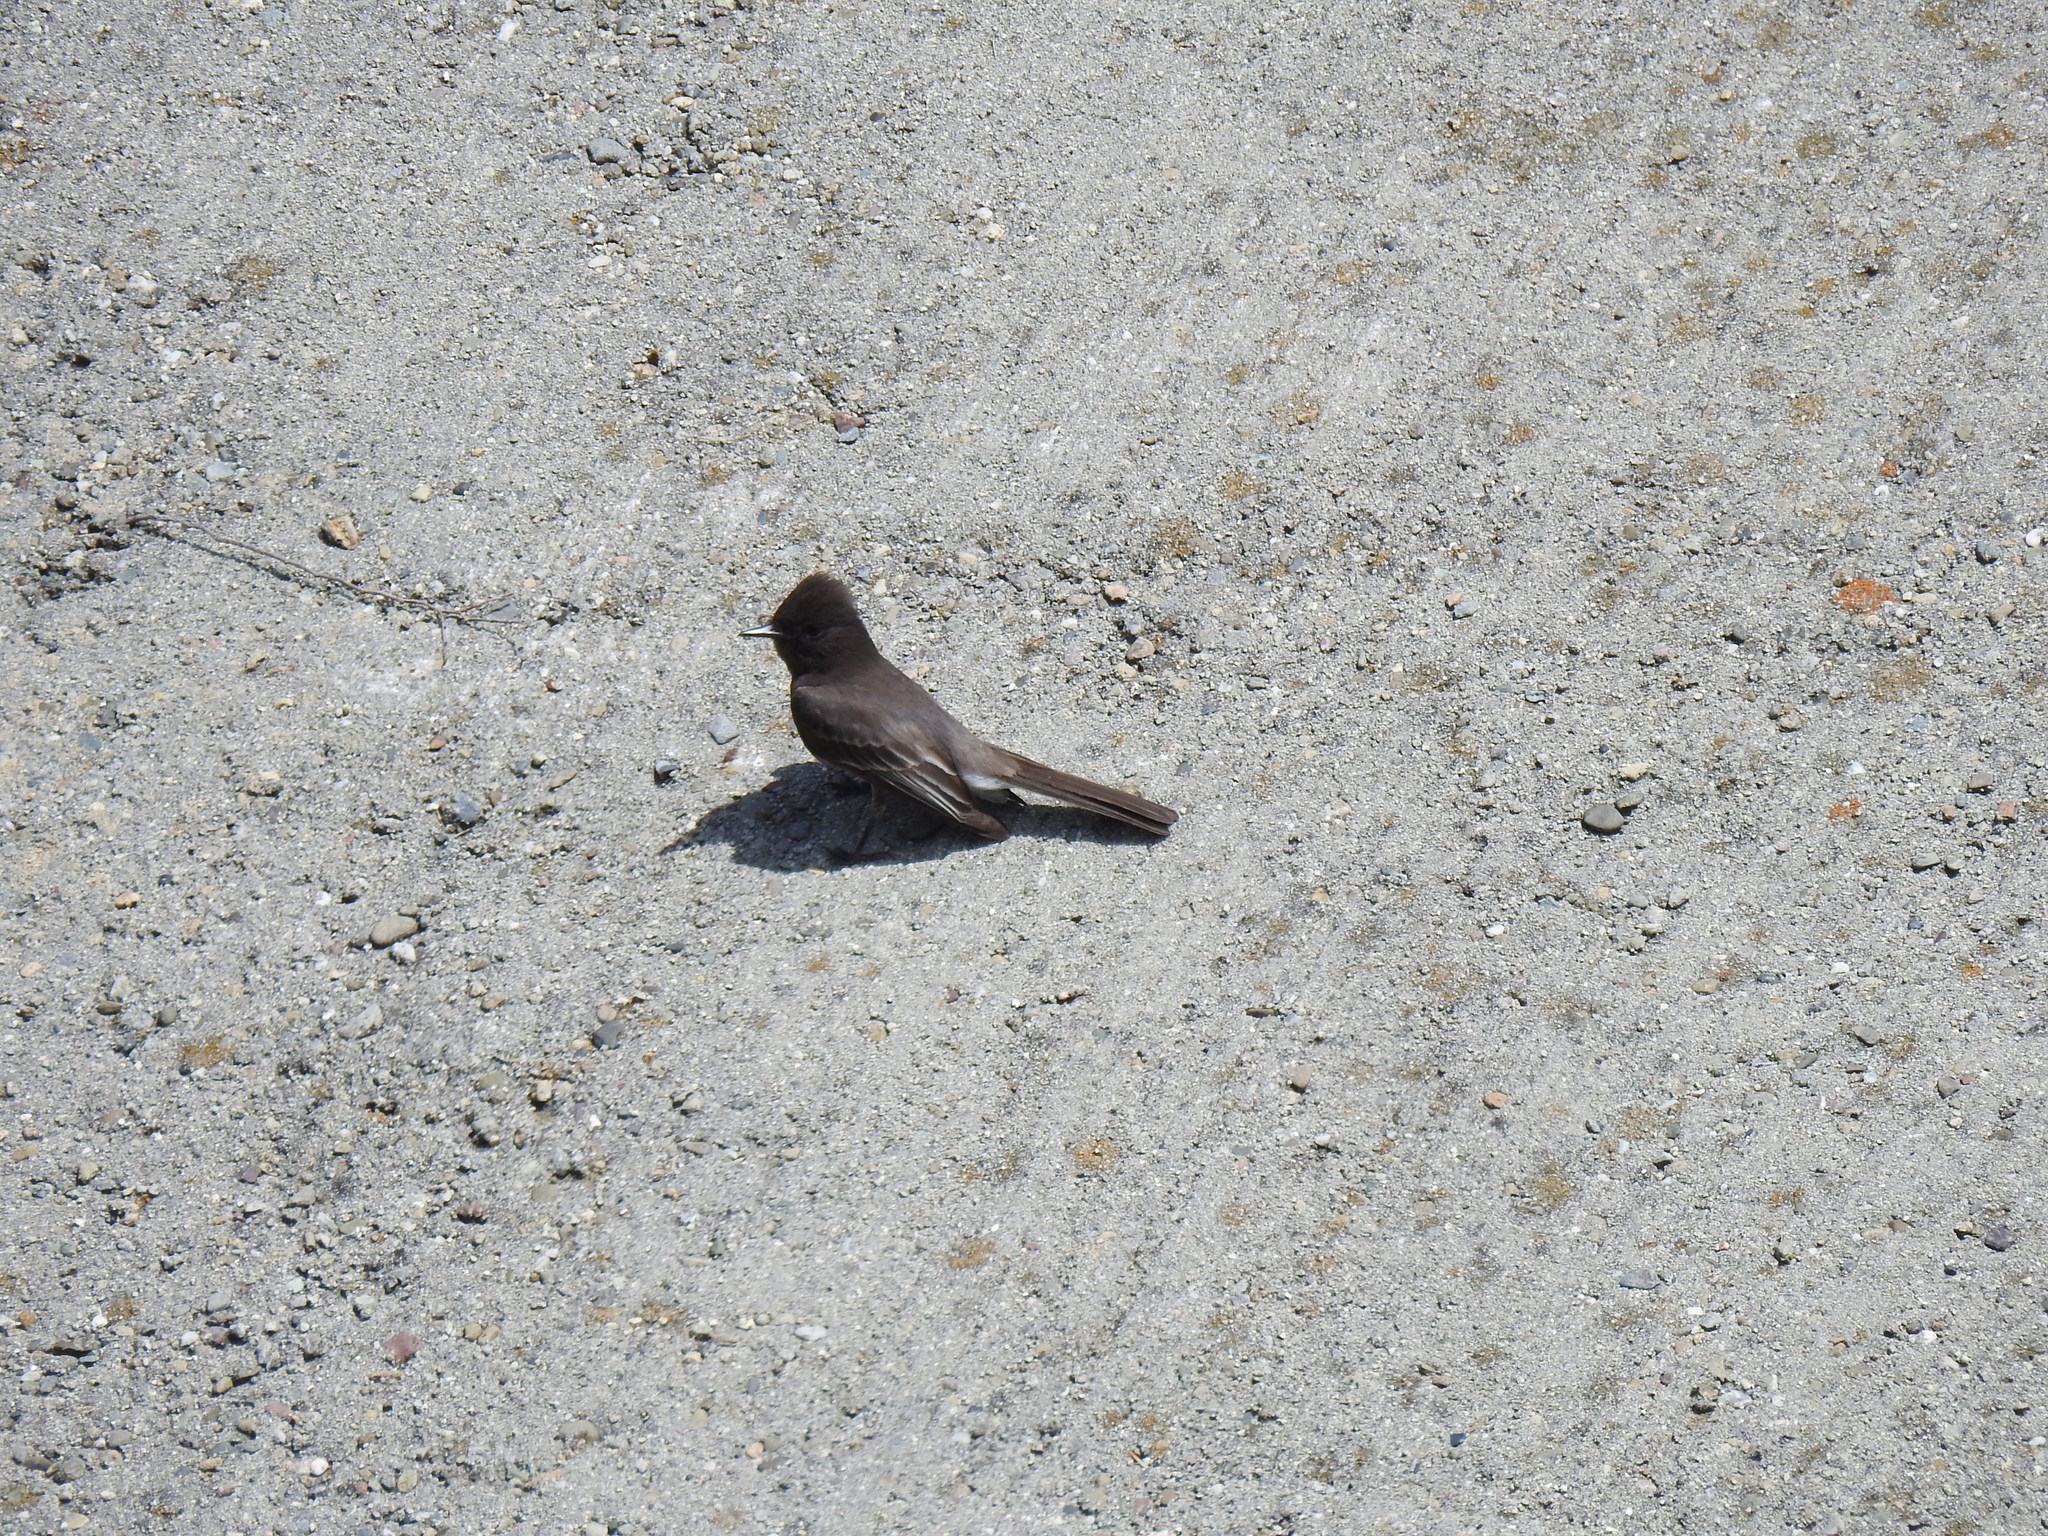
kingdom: Animalia
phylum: Chordata
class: Aves
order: Passeriformes
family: Tyrannidae
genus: Sayornis
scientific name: Sayornis nigricans
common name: Black phoebe
